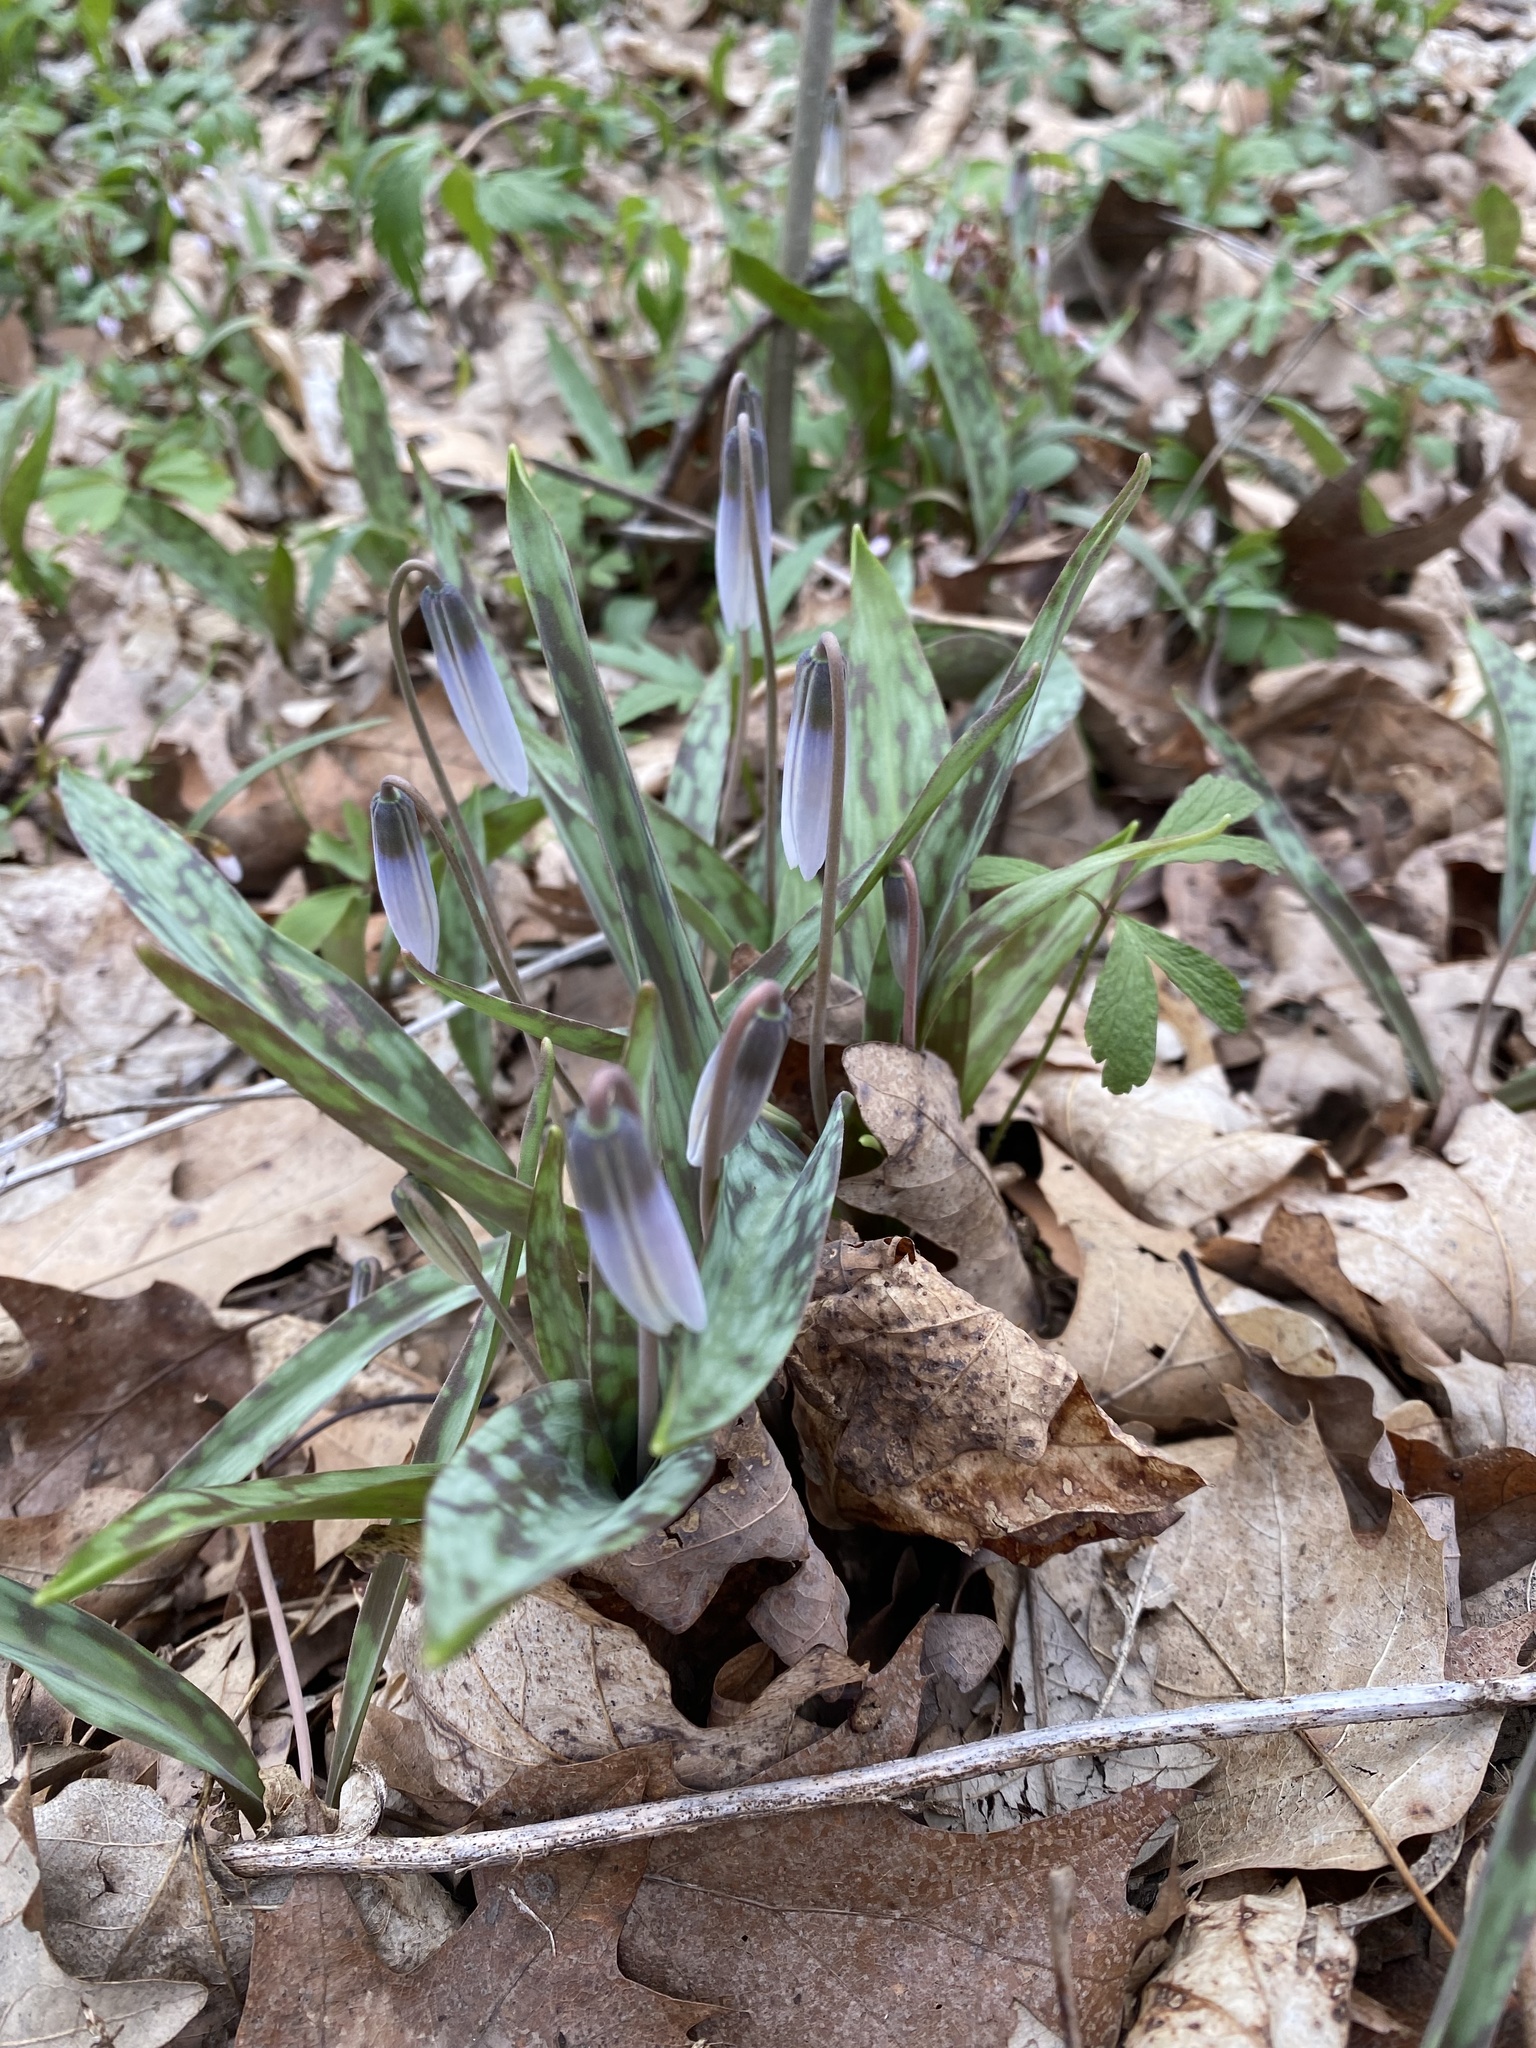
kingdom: Plantae
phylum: Tracheophyta
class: Liliopsida
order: Liliales
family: Liliaceae
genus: Erythronium
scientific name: Erythronium albidum
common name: White trout-lily
